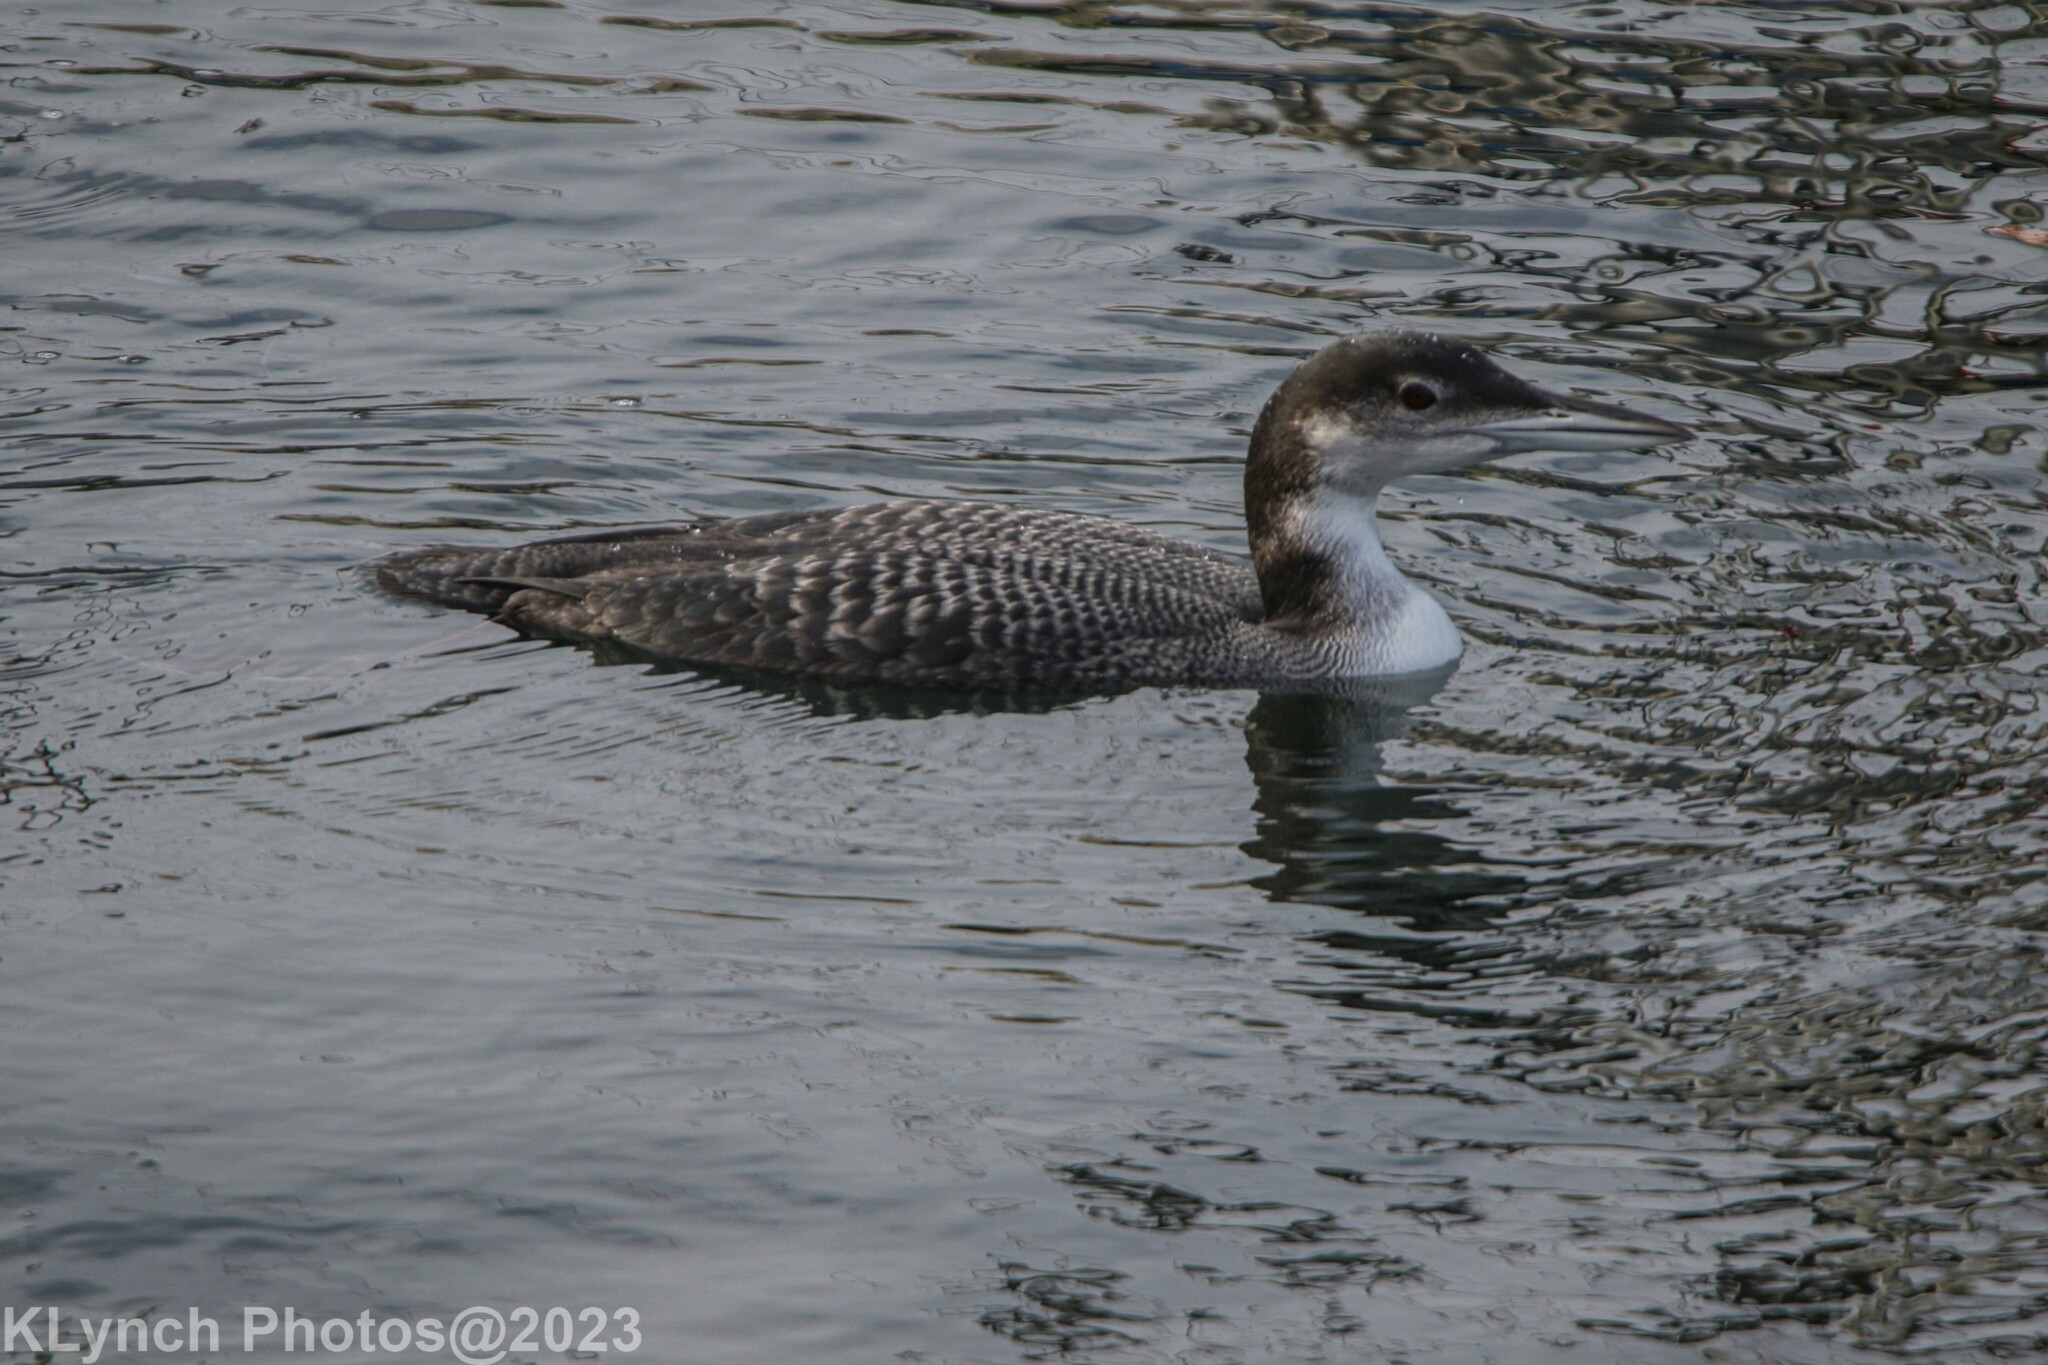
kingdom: Animalia
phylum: Chordata
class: Aves
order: Gaviiformes
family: Gaviidae
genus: Gavia
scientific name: Gavia immer
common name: Common loon
